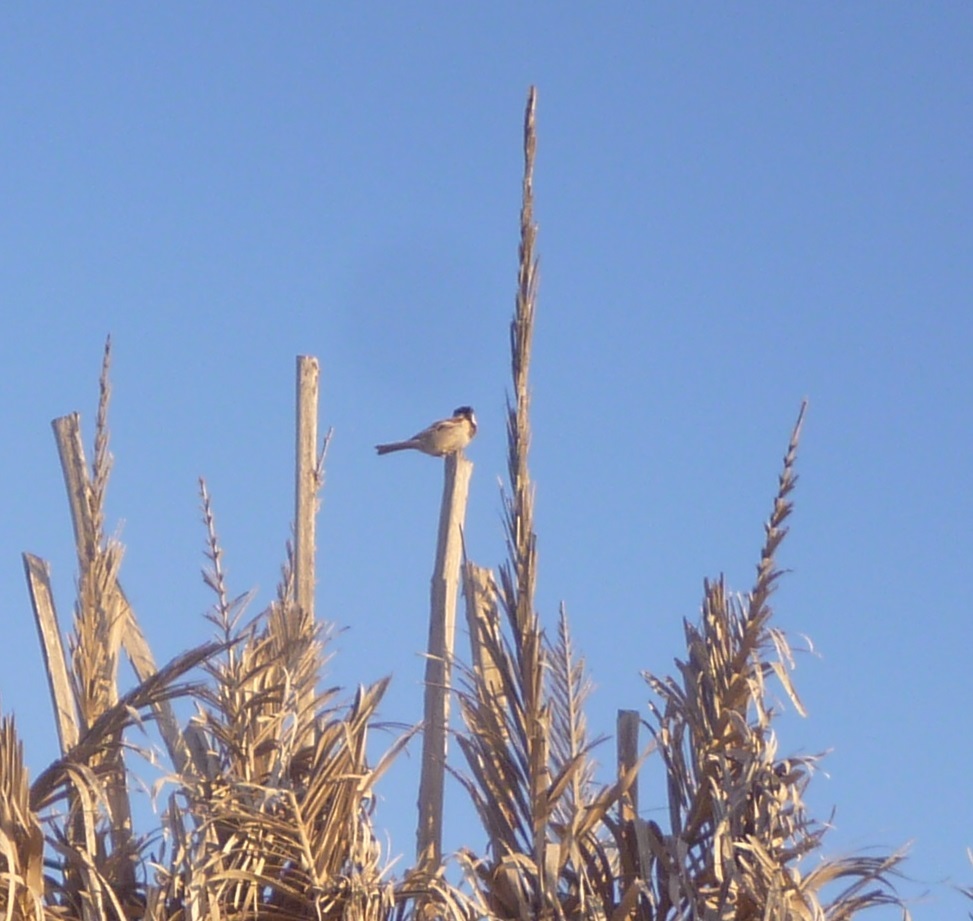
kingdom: Animalia
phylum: Chordata
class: Aves
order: Passeriformes
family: Passeridae
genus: Passer
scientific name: Passer domesticus
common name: House sparrow
